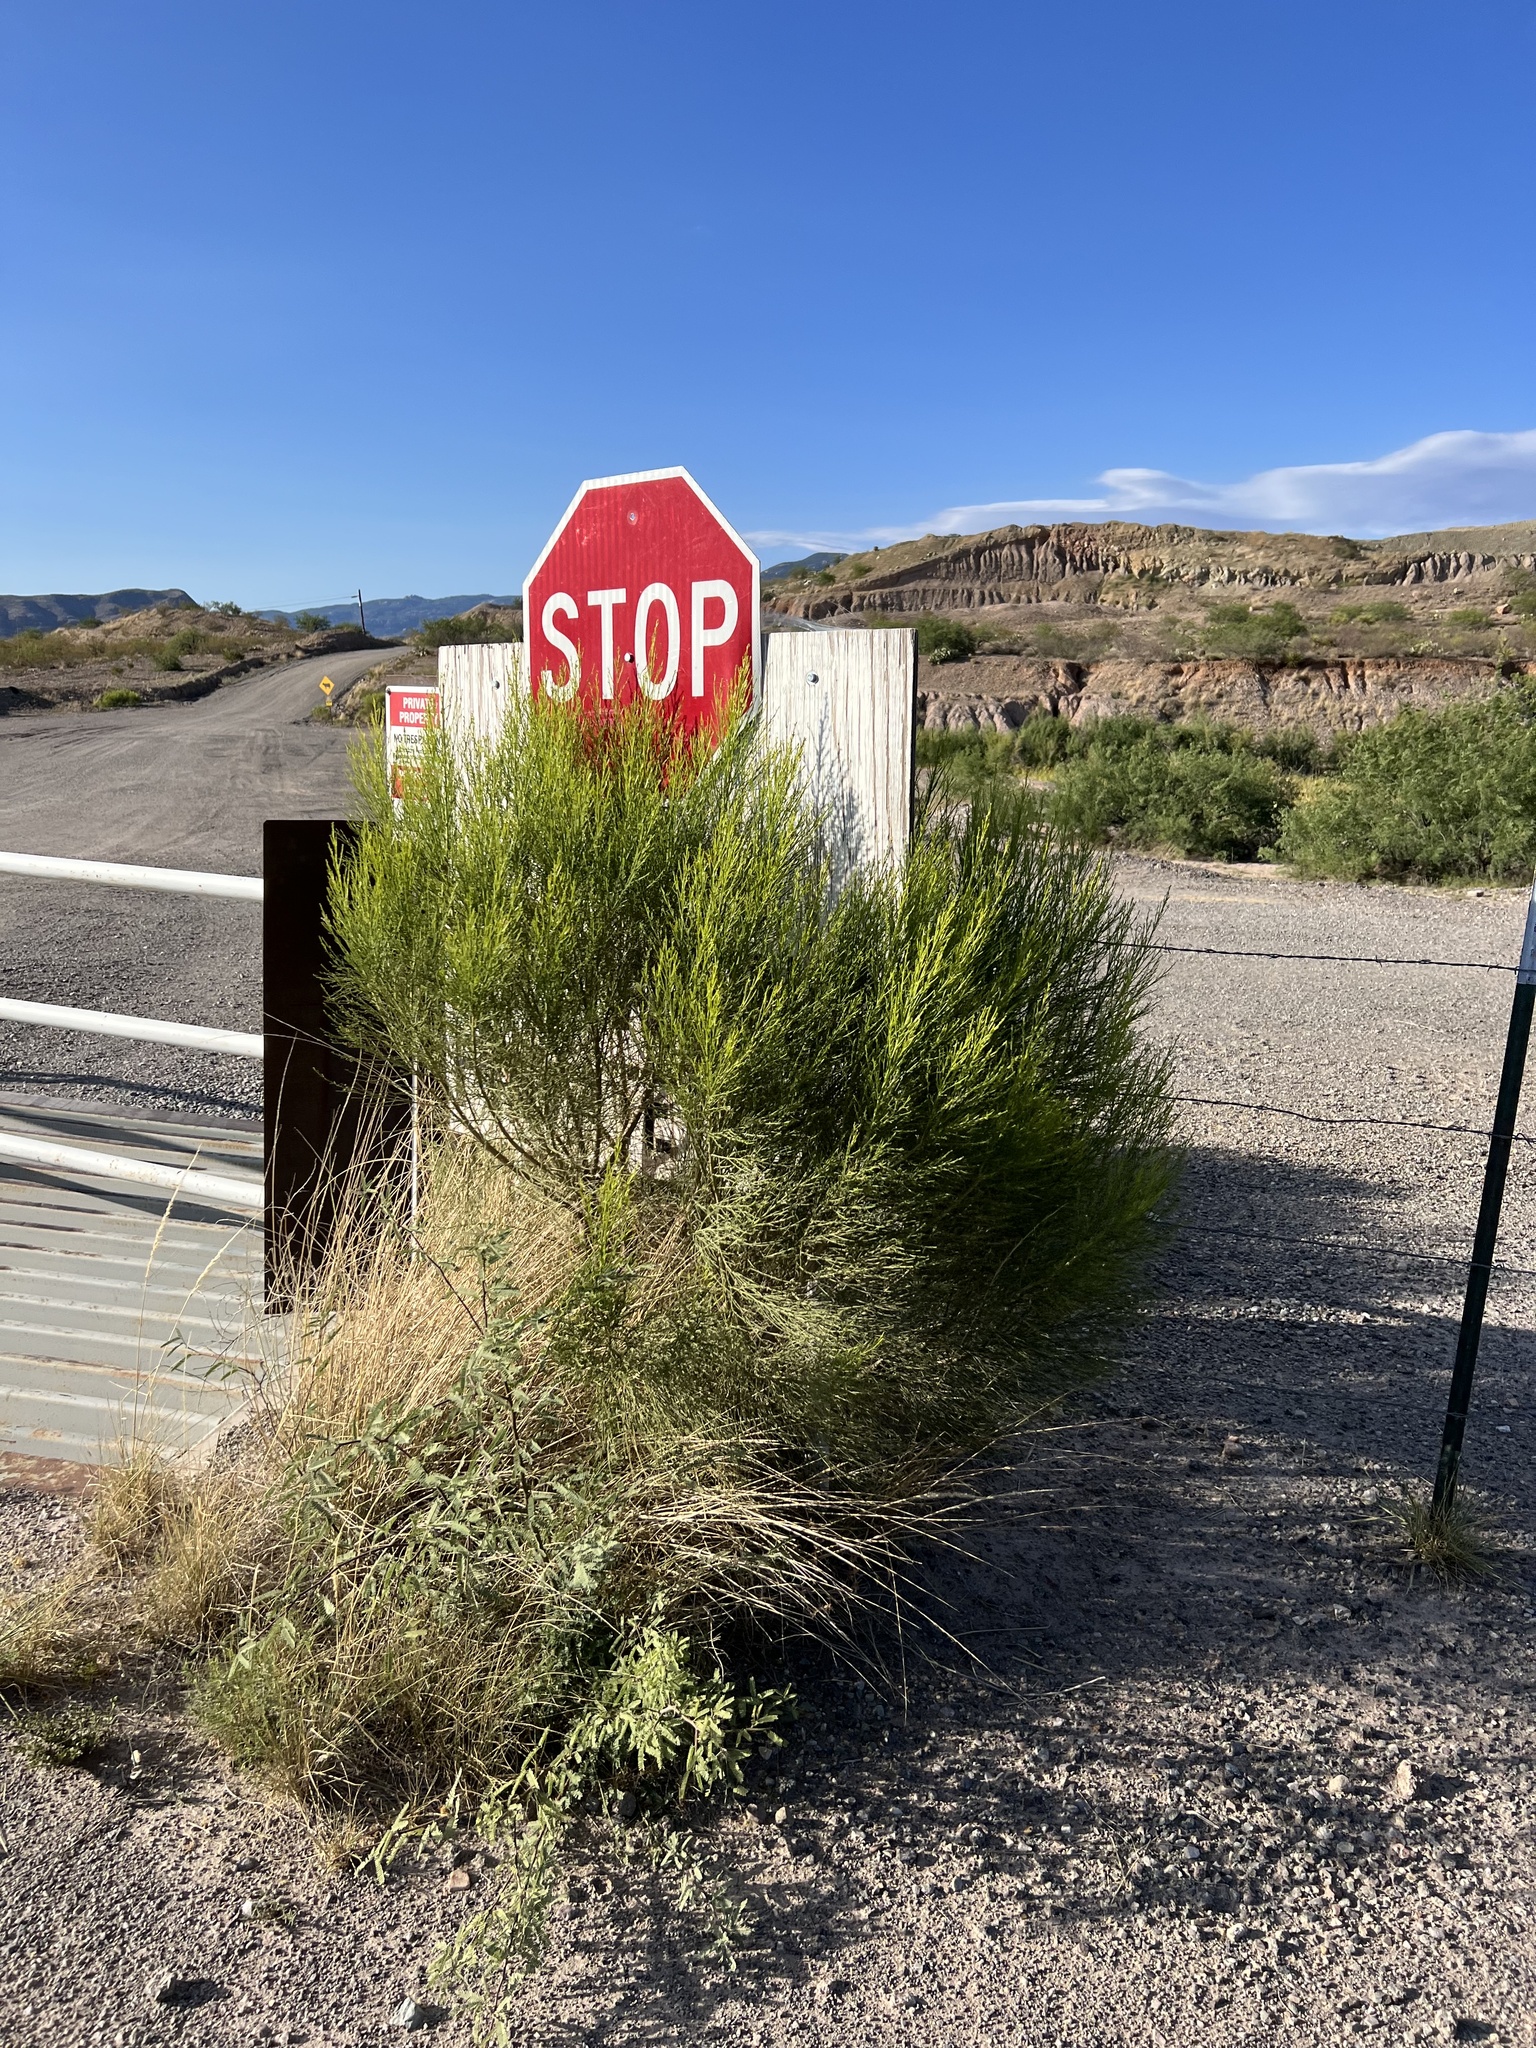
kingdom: Plantae
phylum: Tracheophyta
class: Magnoliopsida
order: Asterales
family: Asteraceae
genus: Baccharis
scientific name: Baccharis sarothroides
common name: Desert-broom
